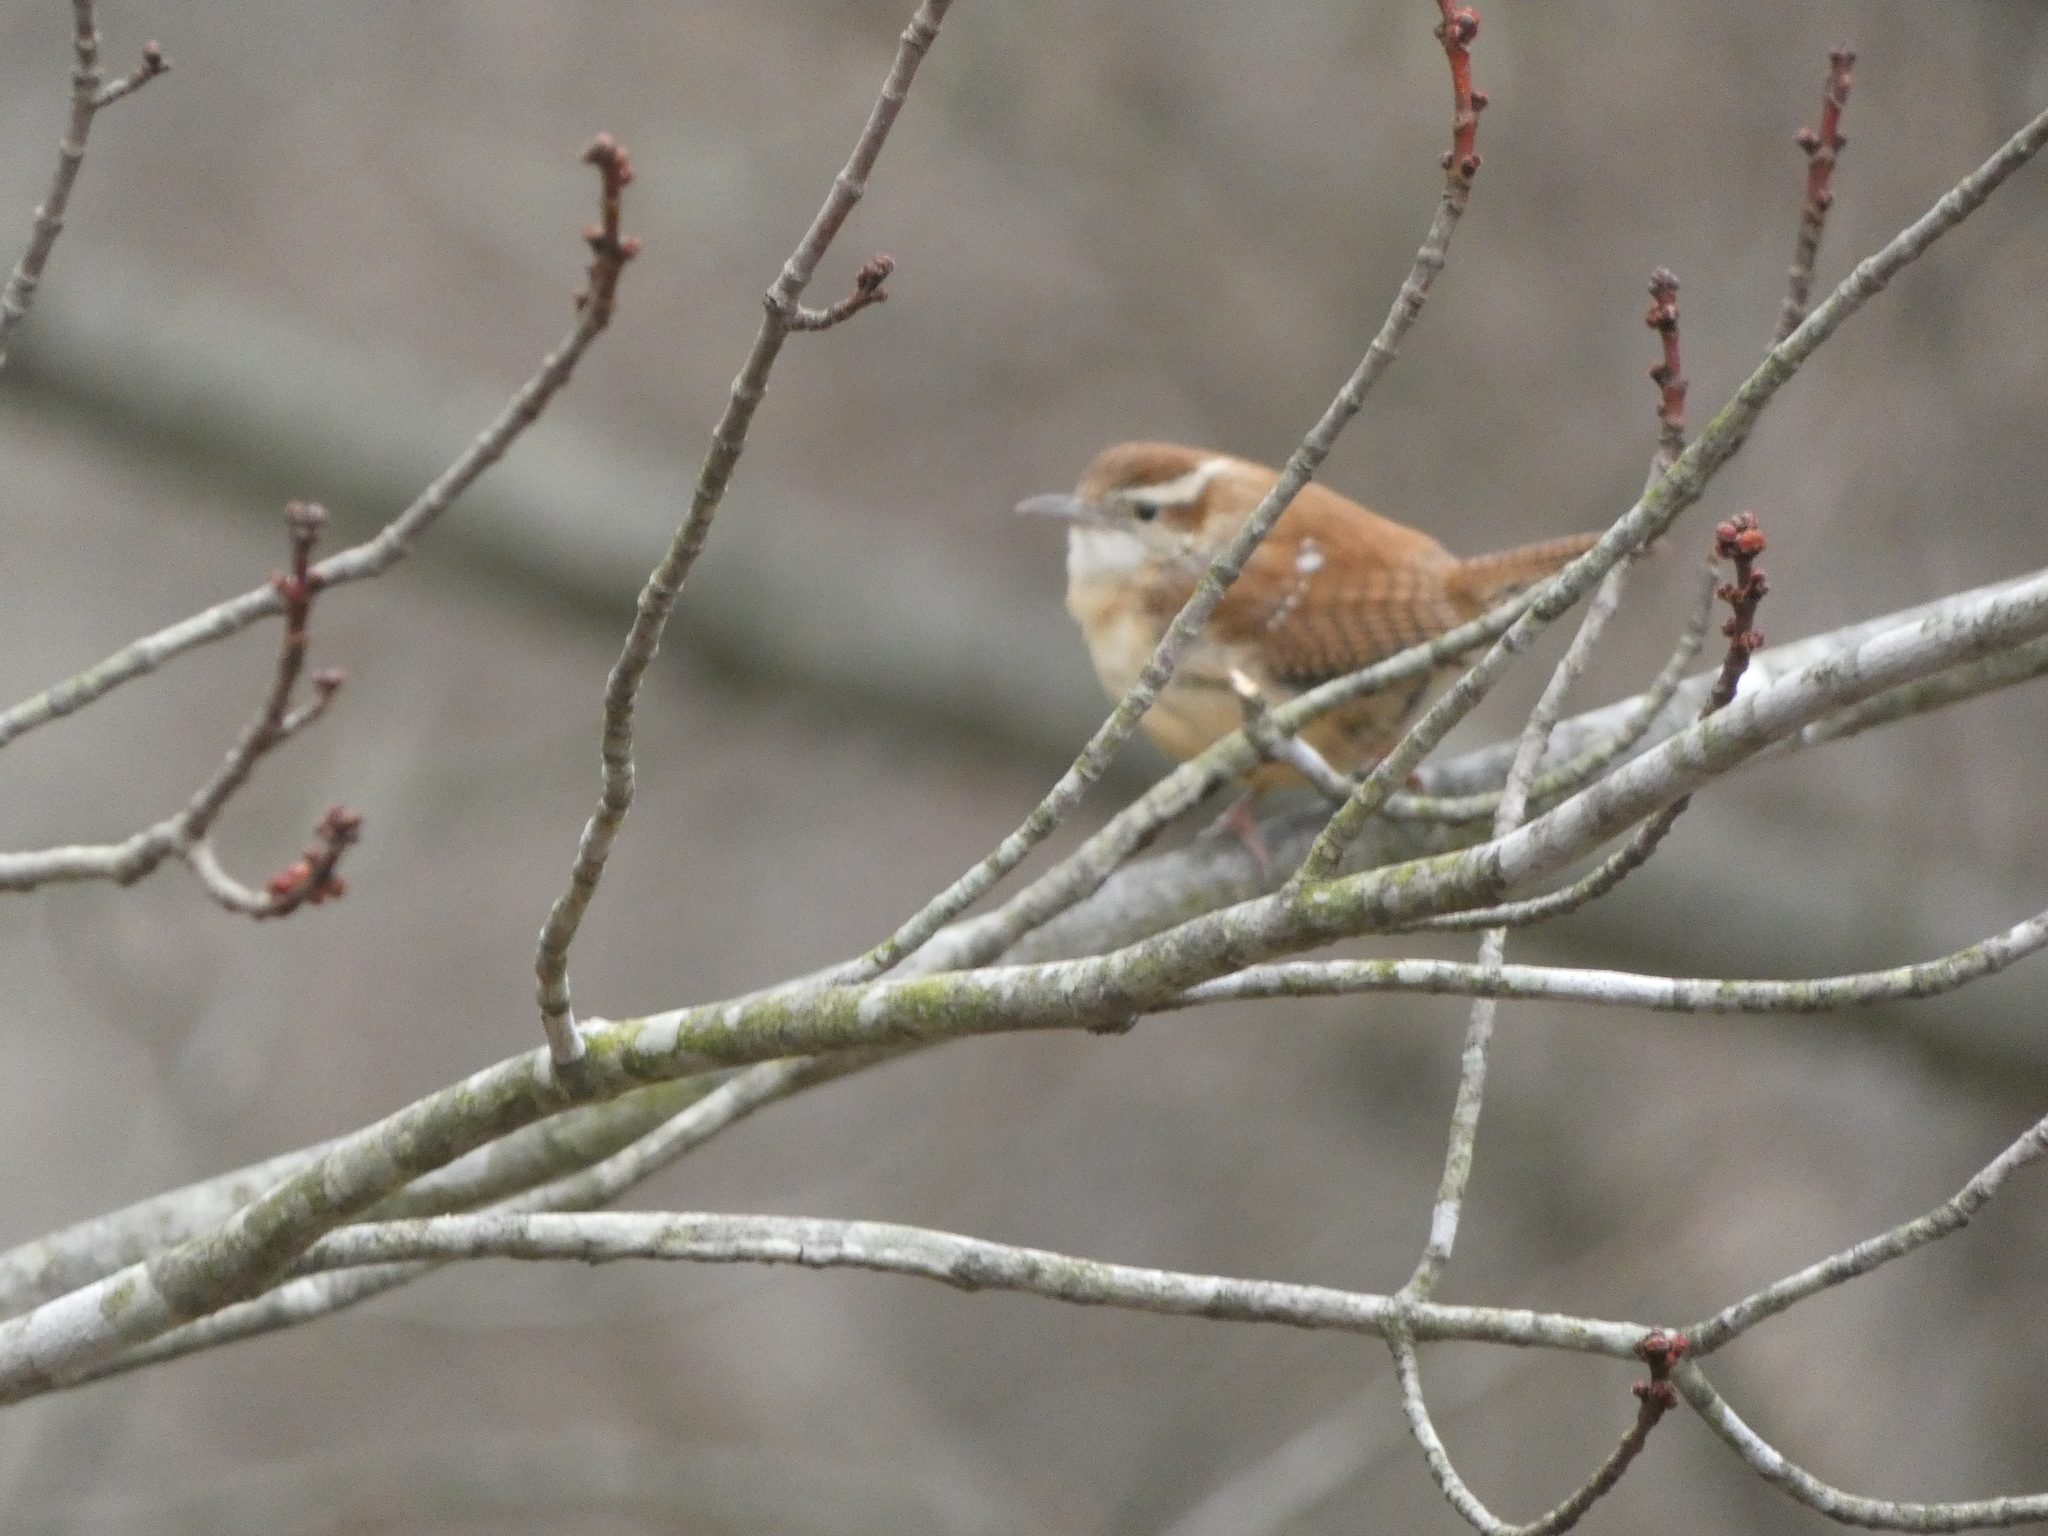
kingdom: Animalia
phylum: Chordata
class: Aves
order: Passeriformes
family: Troglodytidae
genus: Thryothorus
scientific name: Thryothorus ludovicianus
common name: Carolina wren
